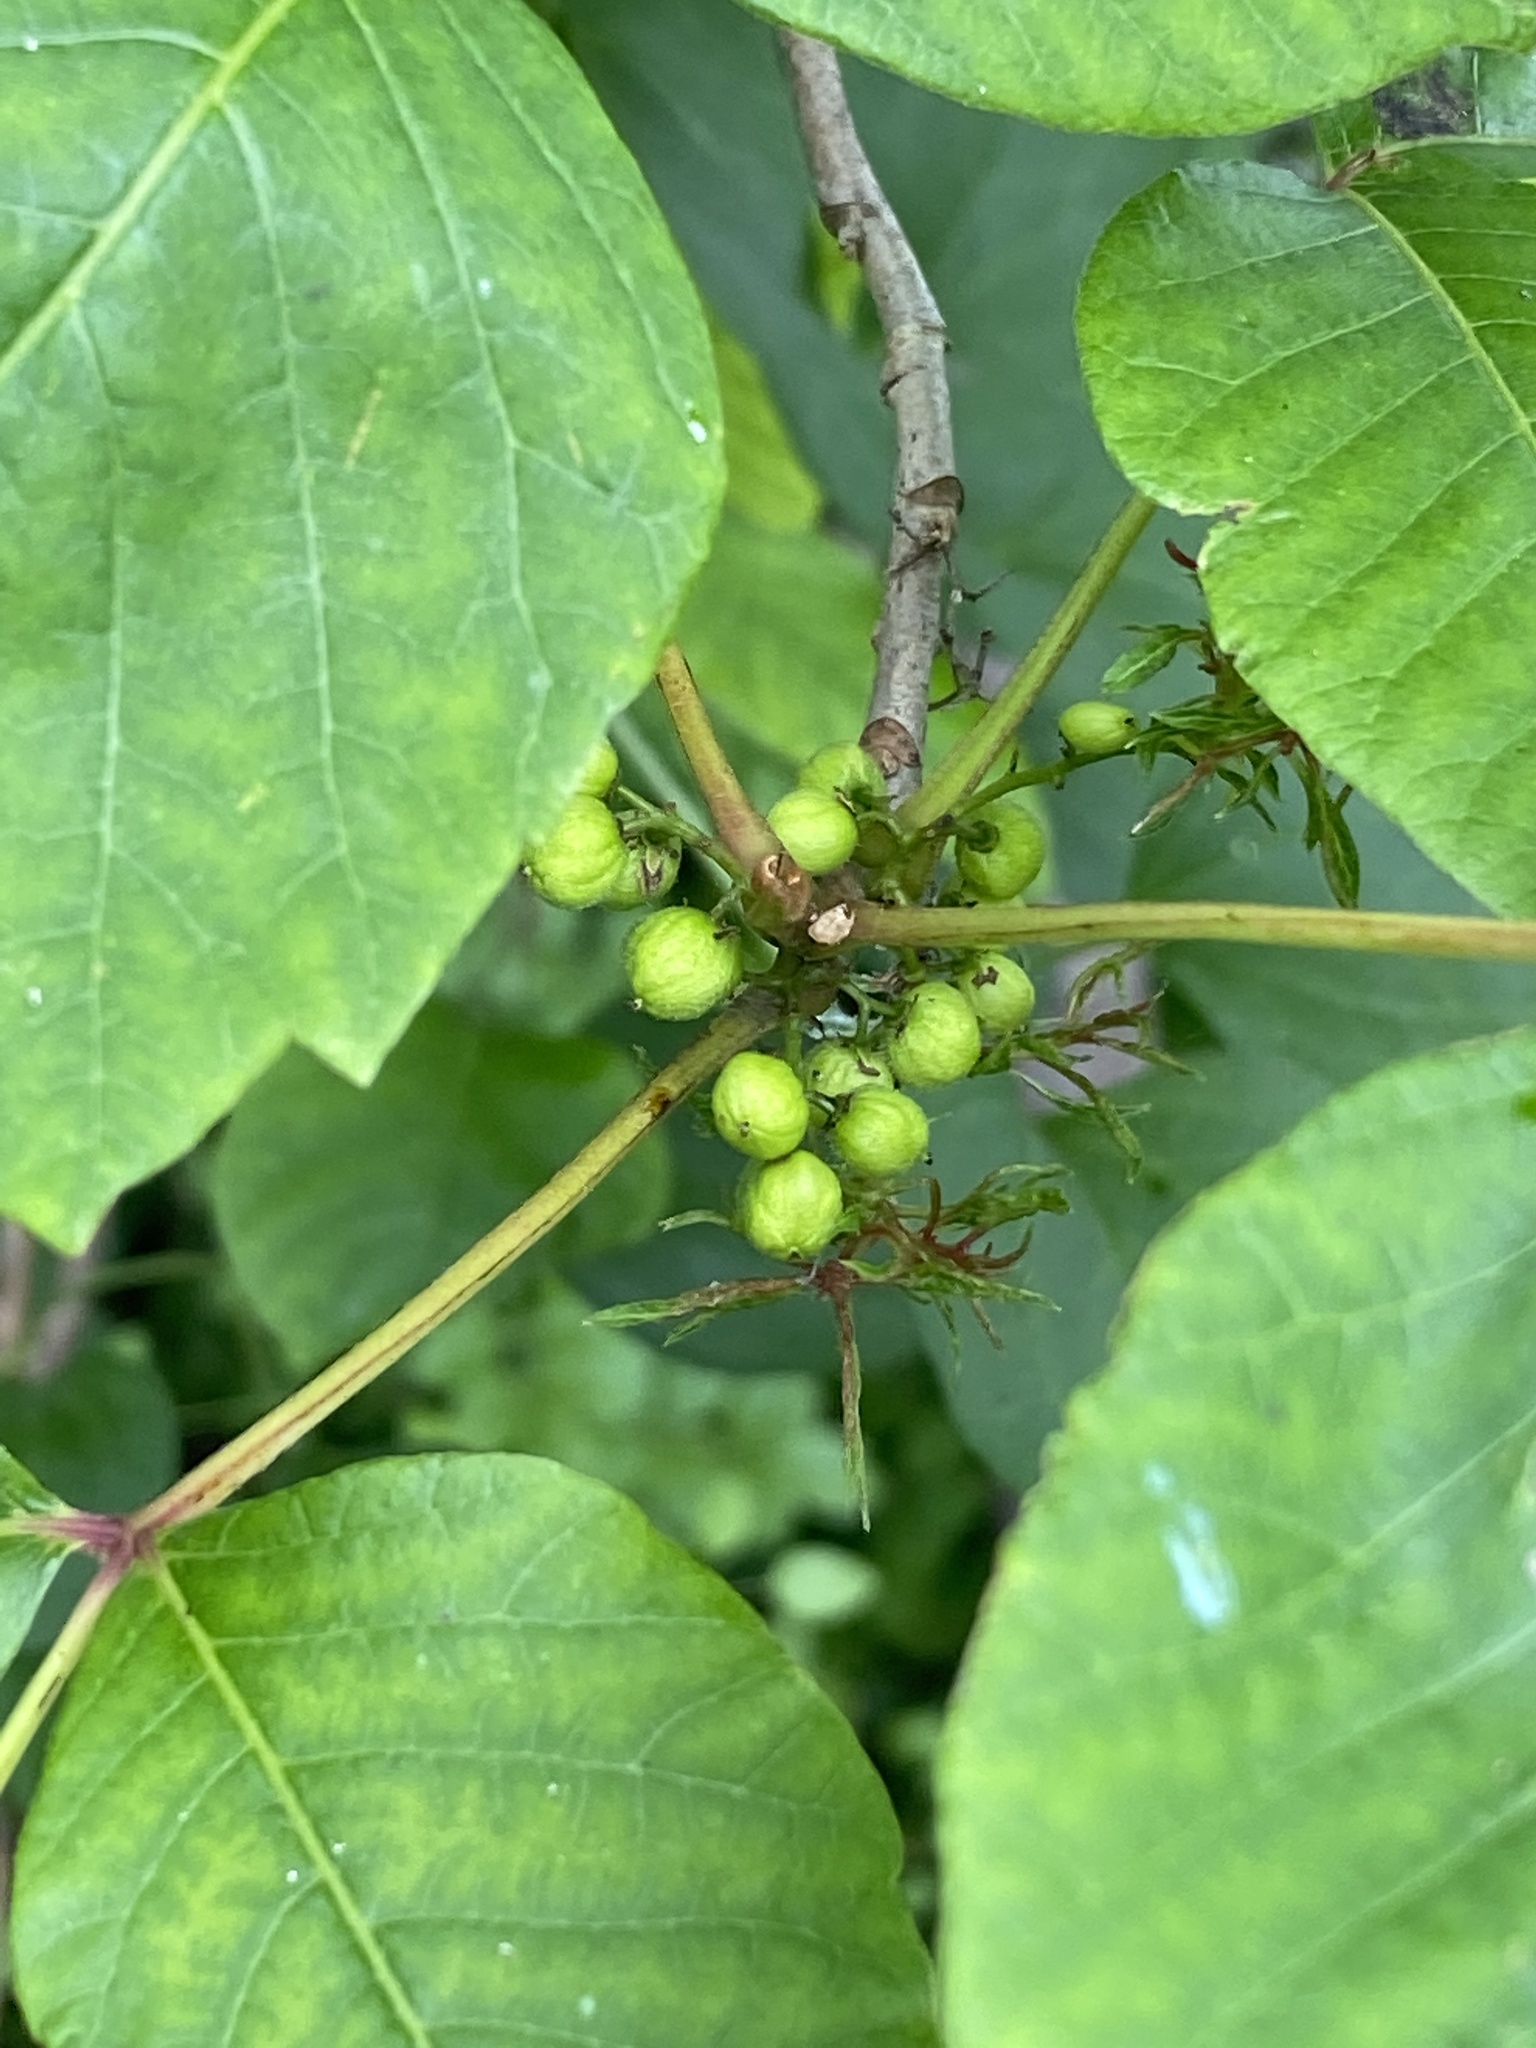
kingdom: Plantae
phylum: Tracheophyta
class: Magnoliopsida
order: Sapindales
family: Anacardiaceae
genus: Toxicodendron
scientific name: Toxicodendron radicans
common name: Poison ivy
